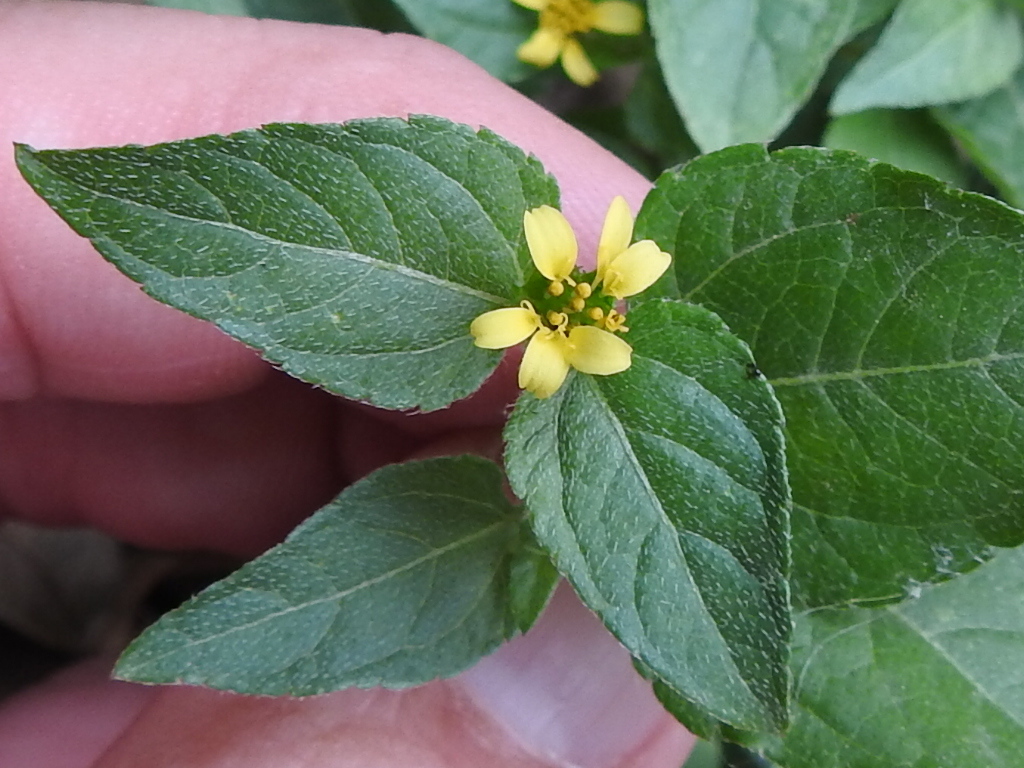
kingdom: Plantae
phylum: Tracheophyta
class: Magnoliopsida
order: Asterales
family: Asteraceae
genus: Calyptocarpus
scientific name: Calyptocarpus vialis
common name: Straggler daisy
